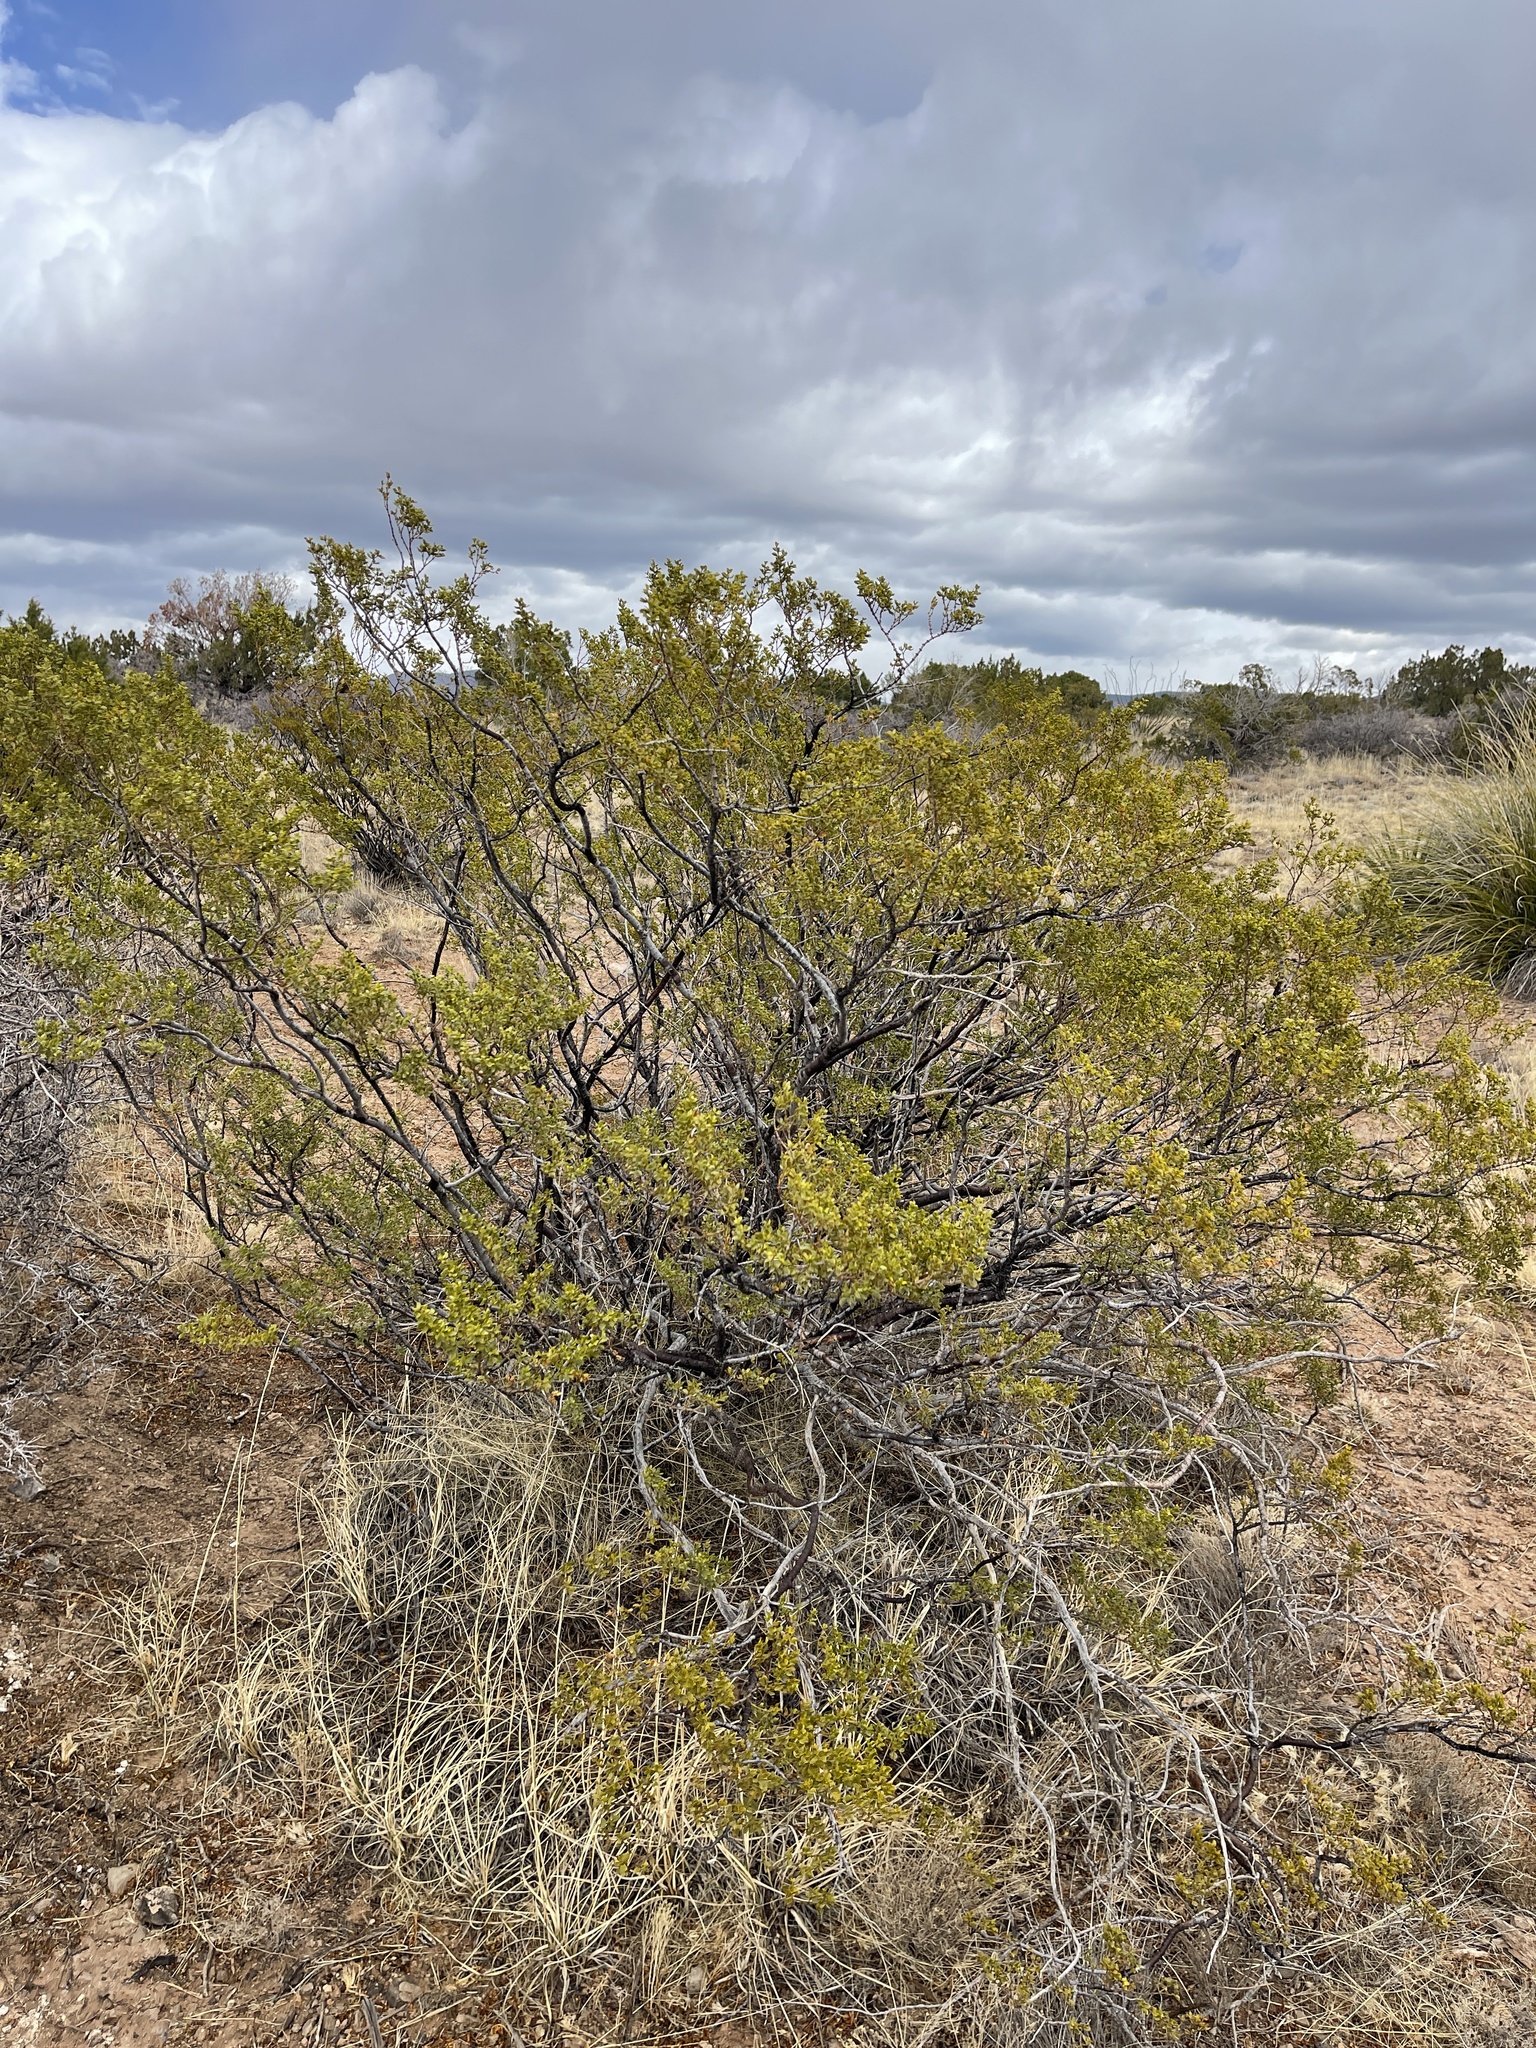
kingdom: Plantae
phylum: Tracheophyta
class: Magnoliopsida
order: Zygophyllales
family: Zygophyllaceae
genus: Larrea
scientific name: Larrea tridentata
